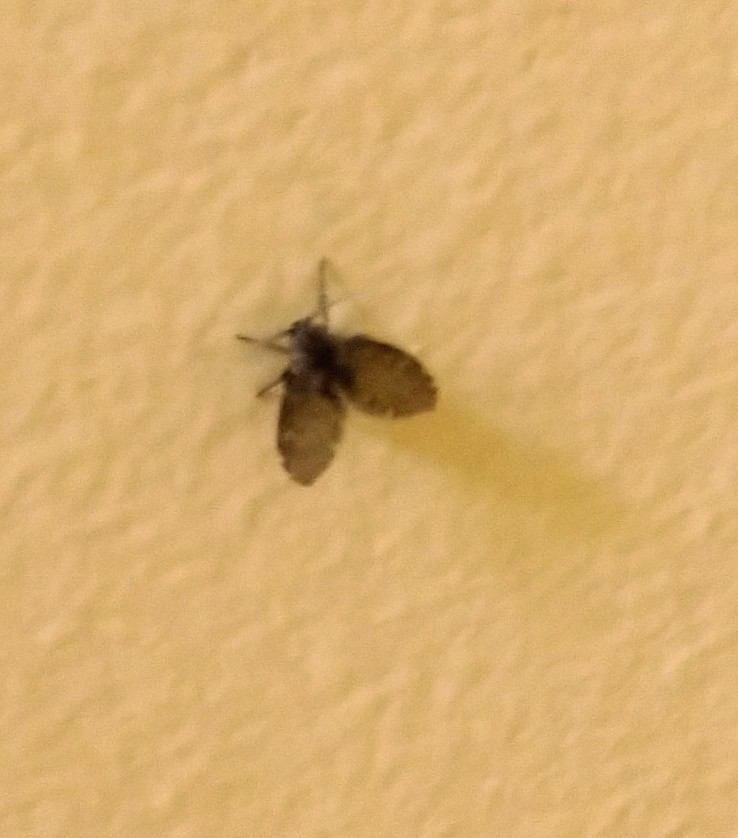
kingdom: Animalia
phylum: Arthropoda
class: Insecta
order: Diptera
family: Psychodidae
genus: Clogmia
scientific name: Clogmia albipunctatus
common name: White-spotted moth fly
